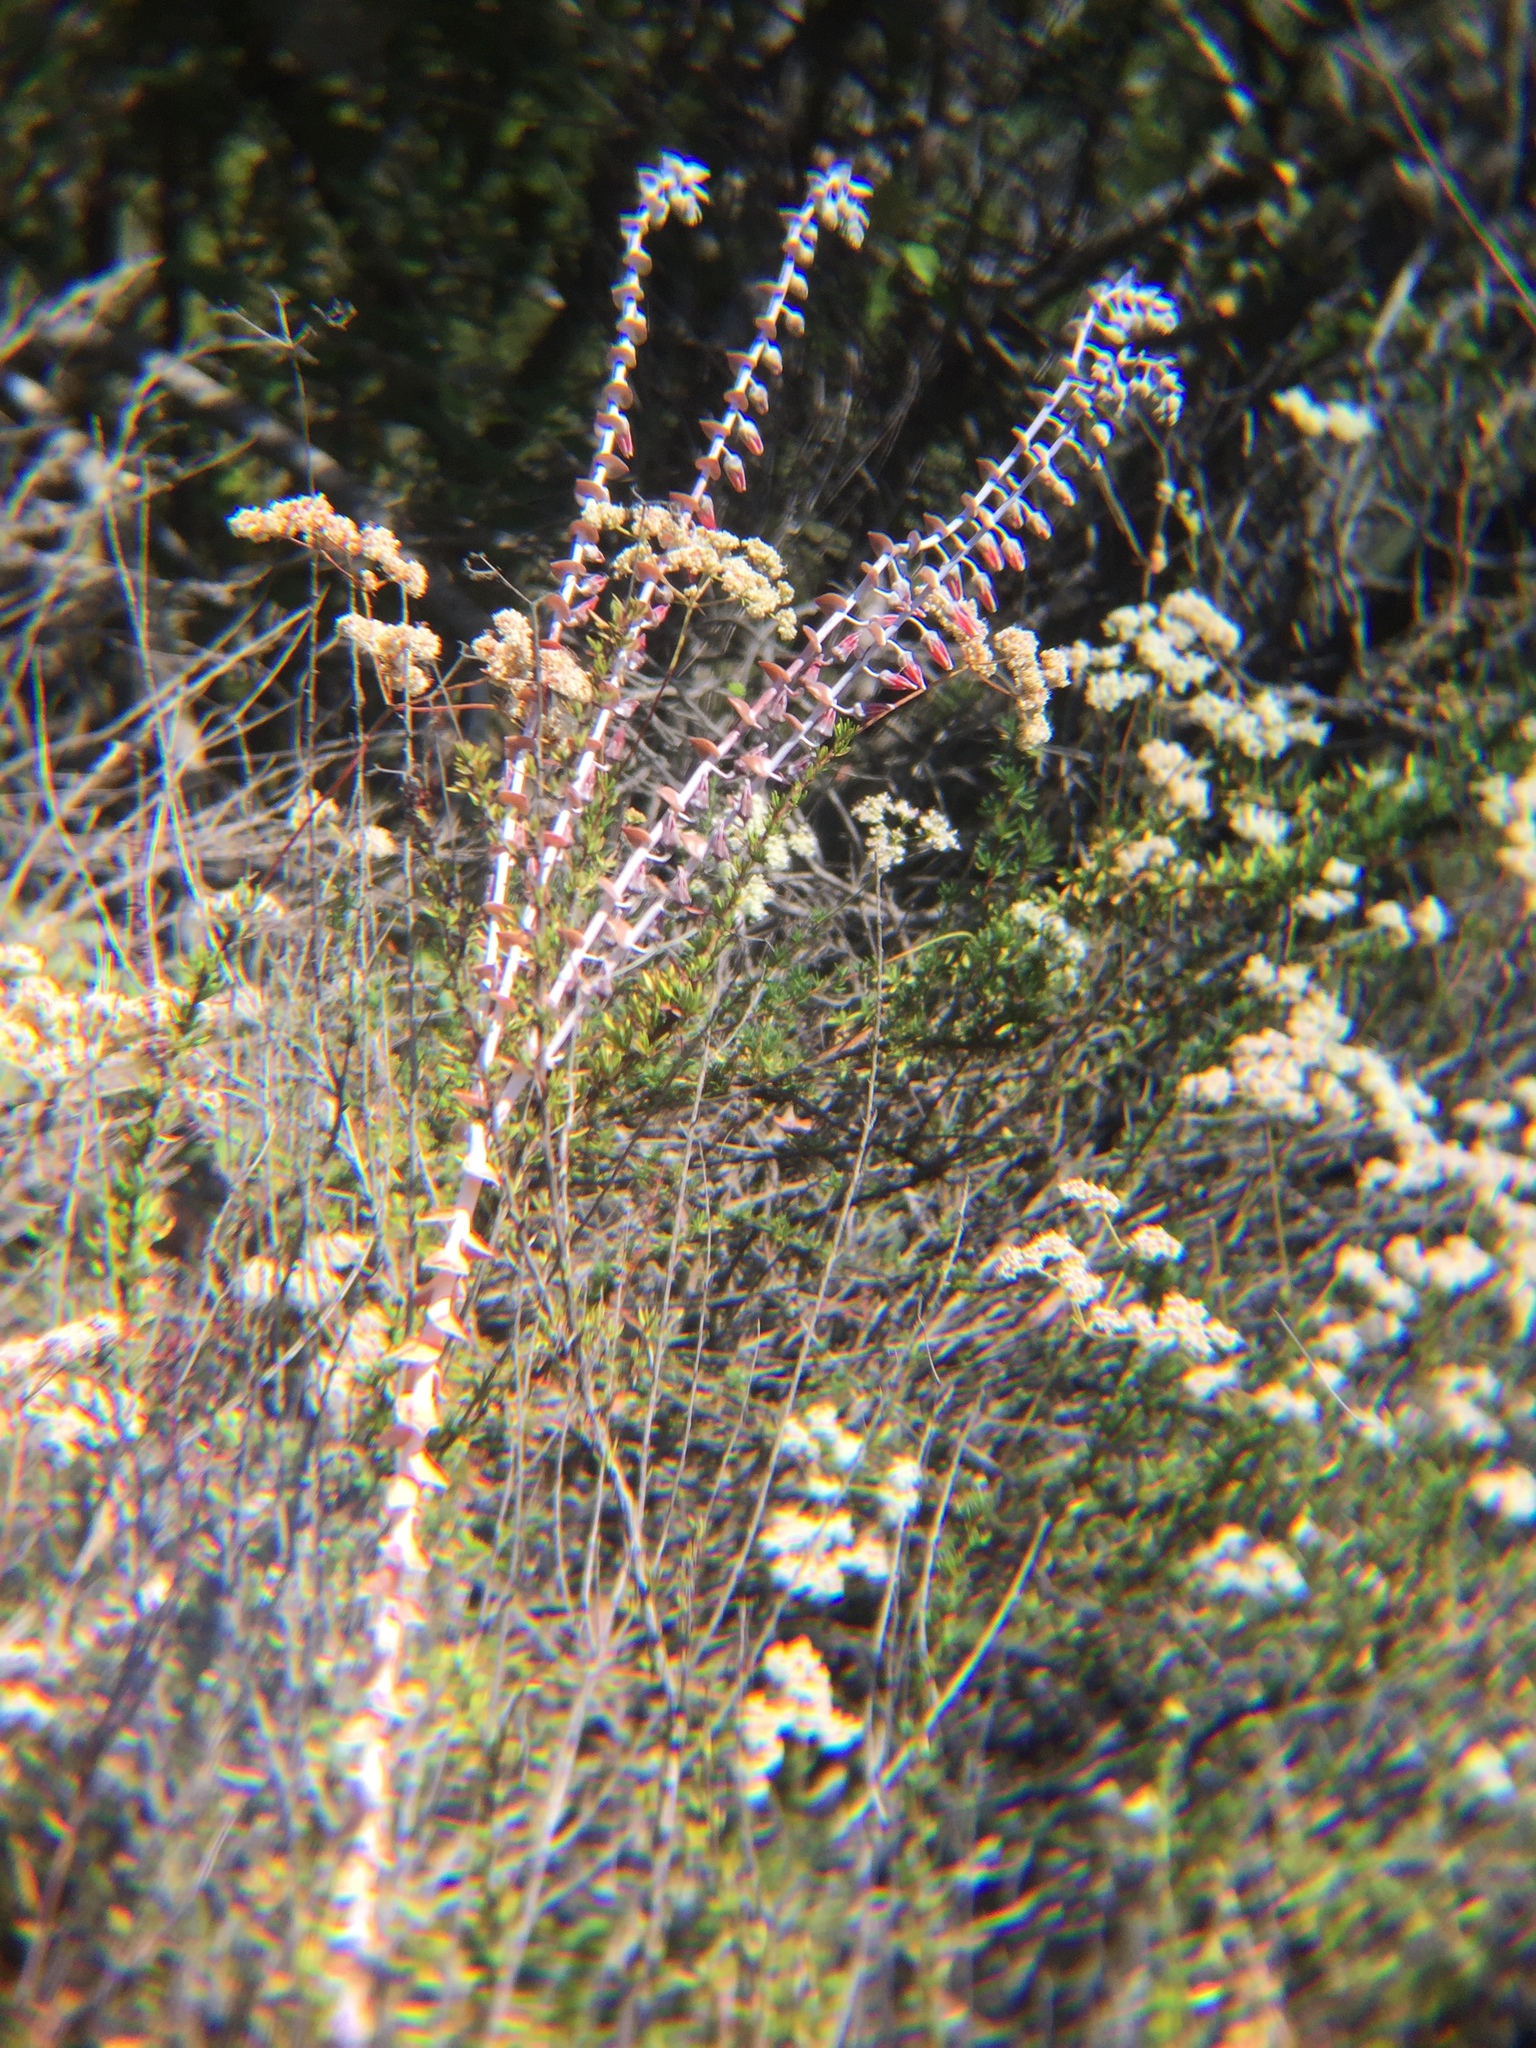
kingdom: Plantae
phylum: Tracheophyta
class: Magnoliopsida
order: Saxifragales
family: Crassulaceae
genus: Dudleya
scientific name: Dudleya pulverulenta
